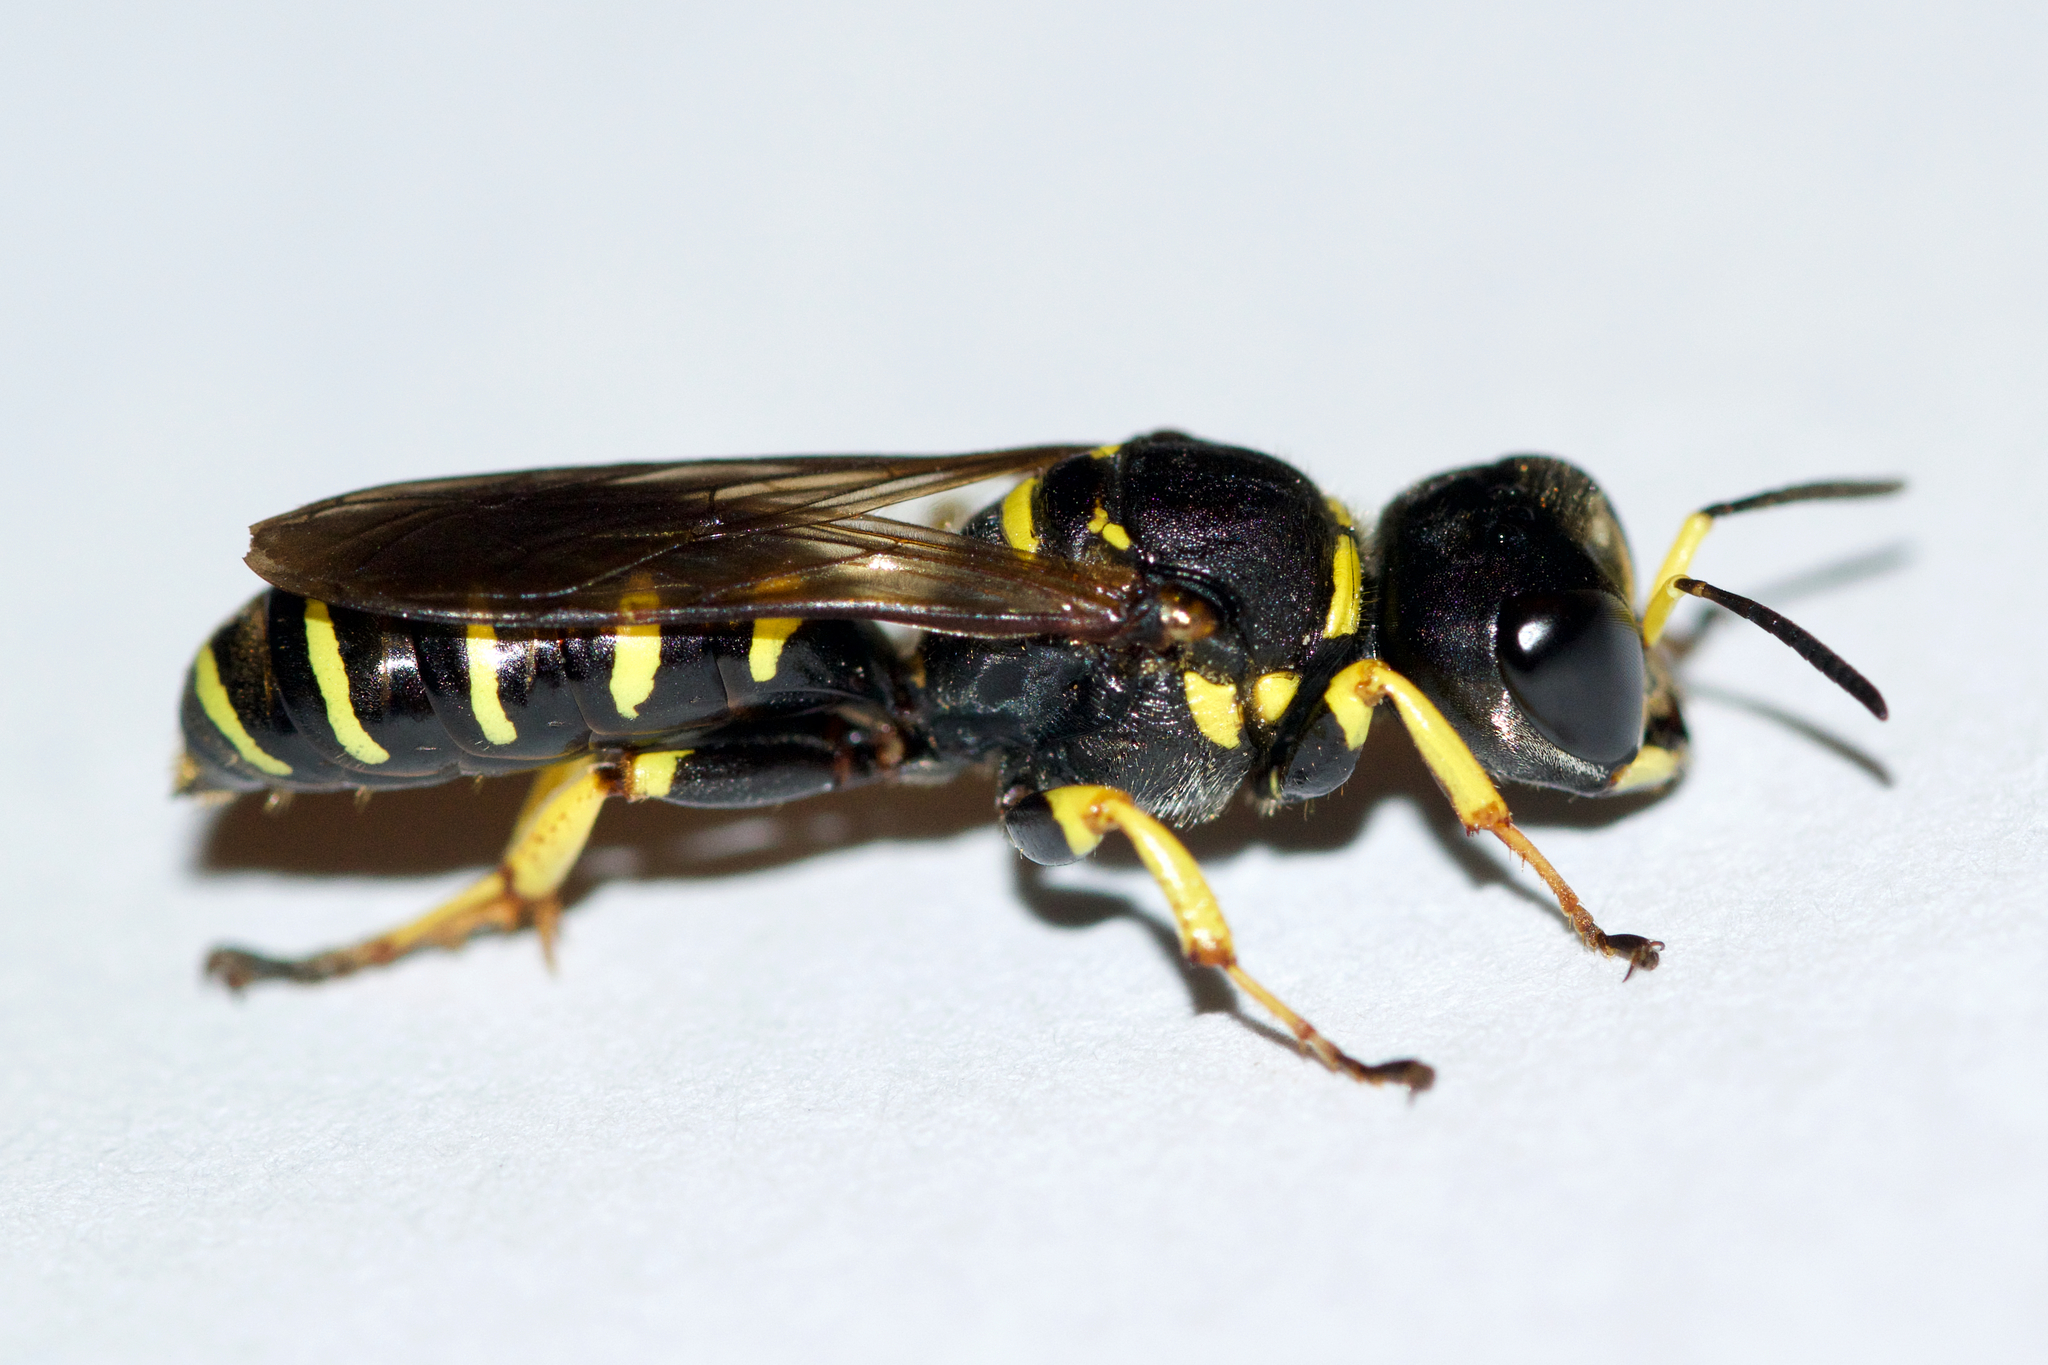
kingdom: Animalia
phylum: Arthropoda
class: Insecta
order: Hymenoptera
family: Crabronidae
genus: Ectemnius
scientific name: Ectemnius arcuatus
